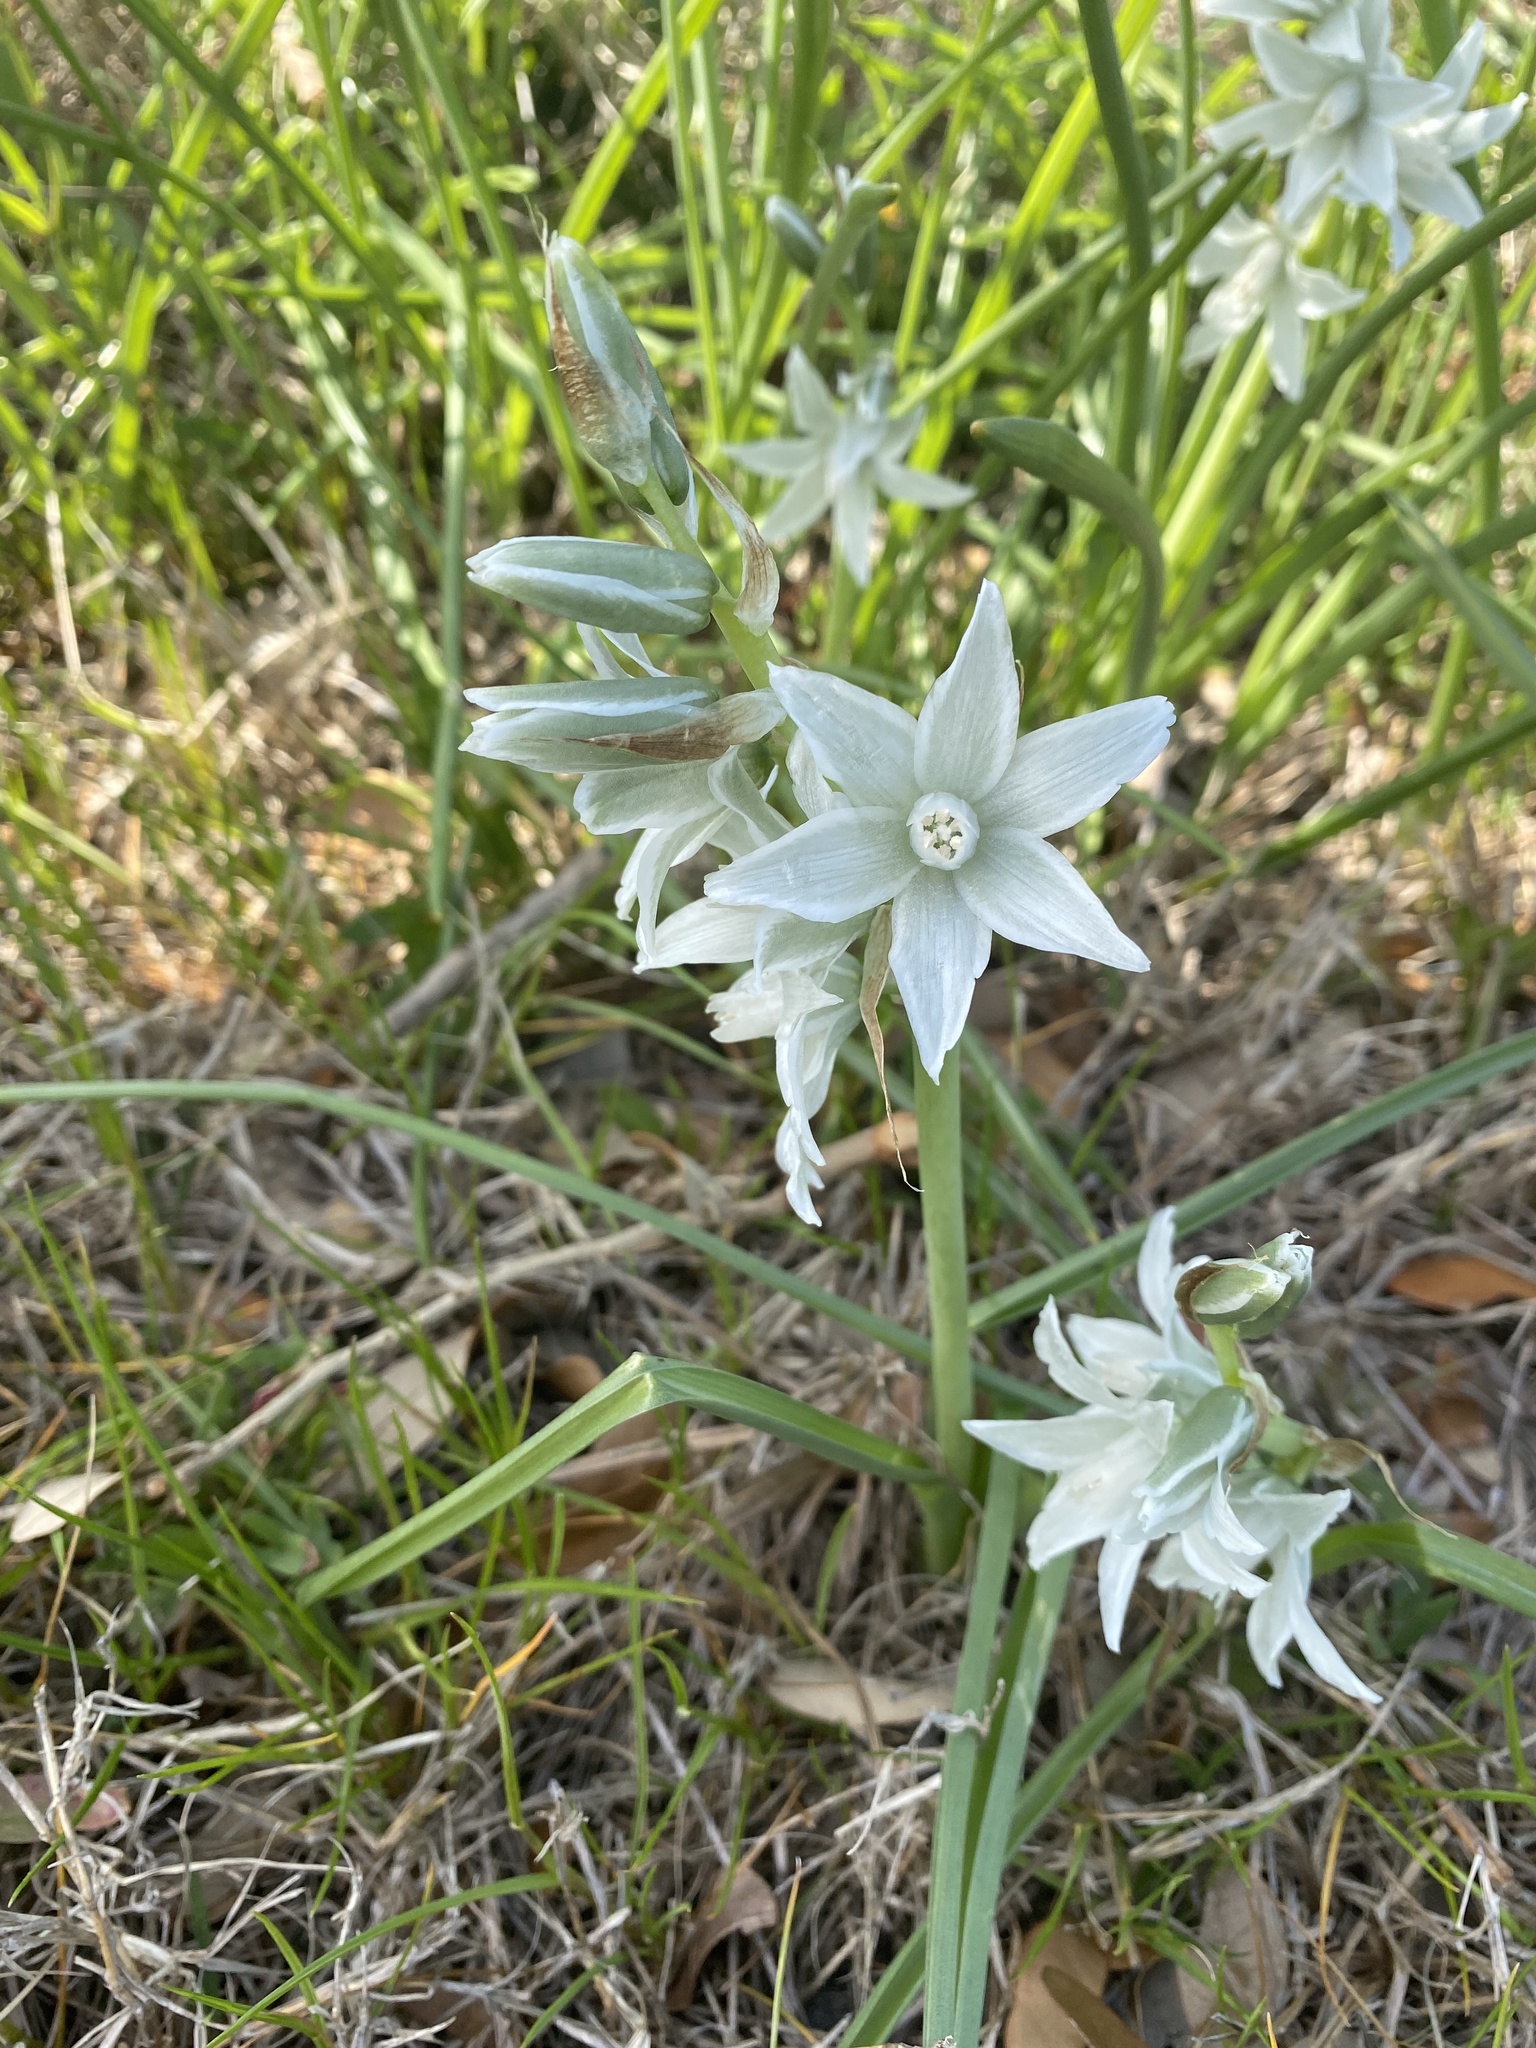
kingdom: Plantae
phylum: Tracheophyta
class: Liliopsida
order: Asparagales
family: Asparagaceae
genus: Ornithogalum
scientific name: Ornithogalum nutans
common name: Drooping star-of-bethlehem
